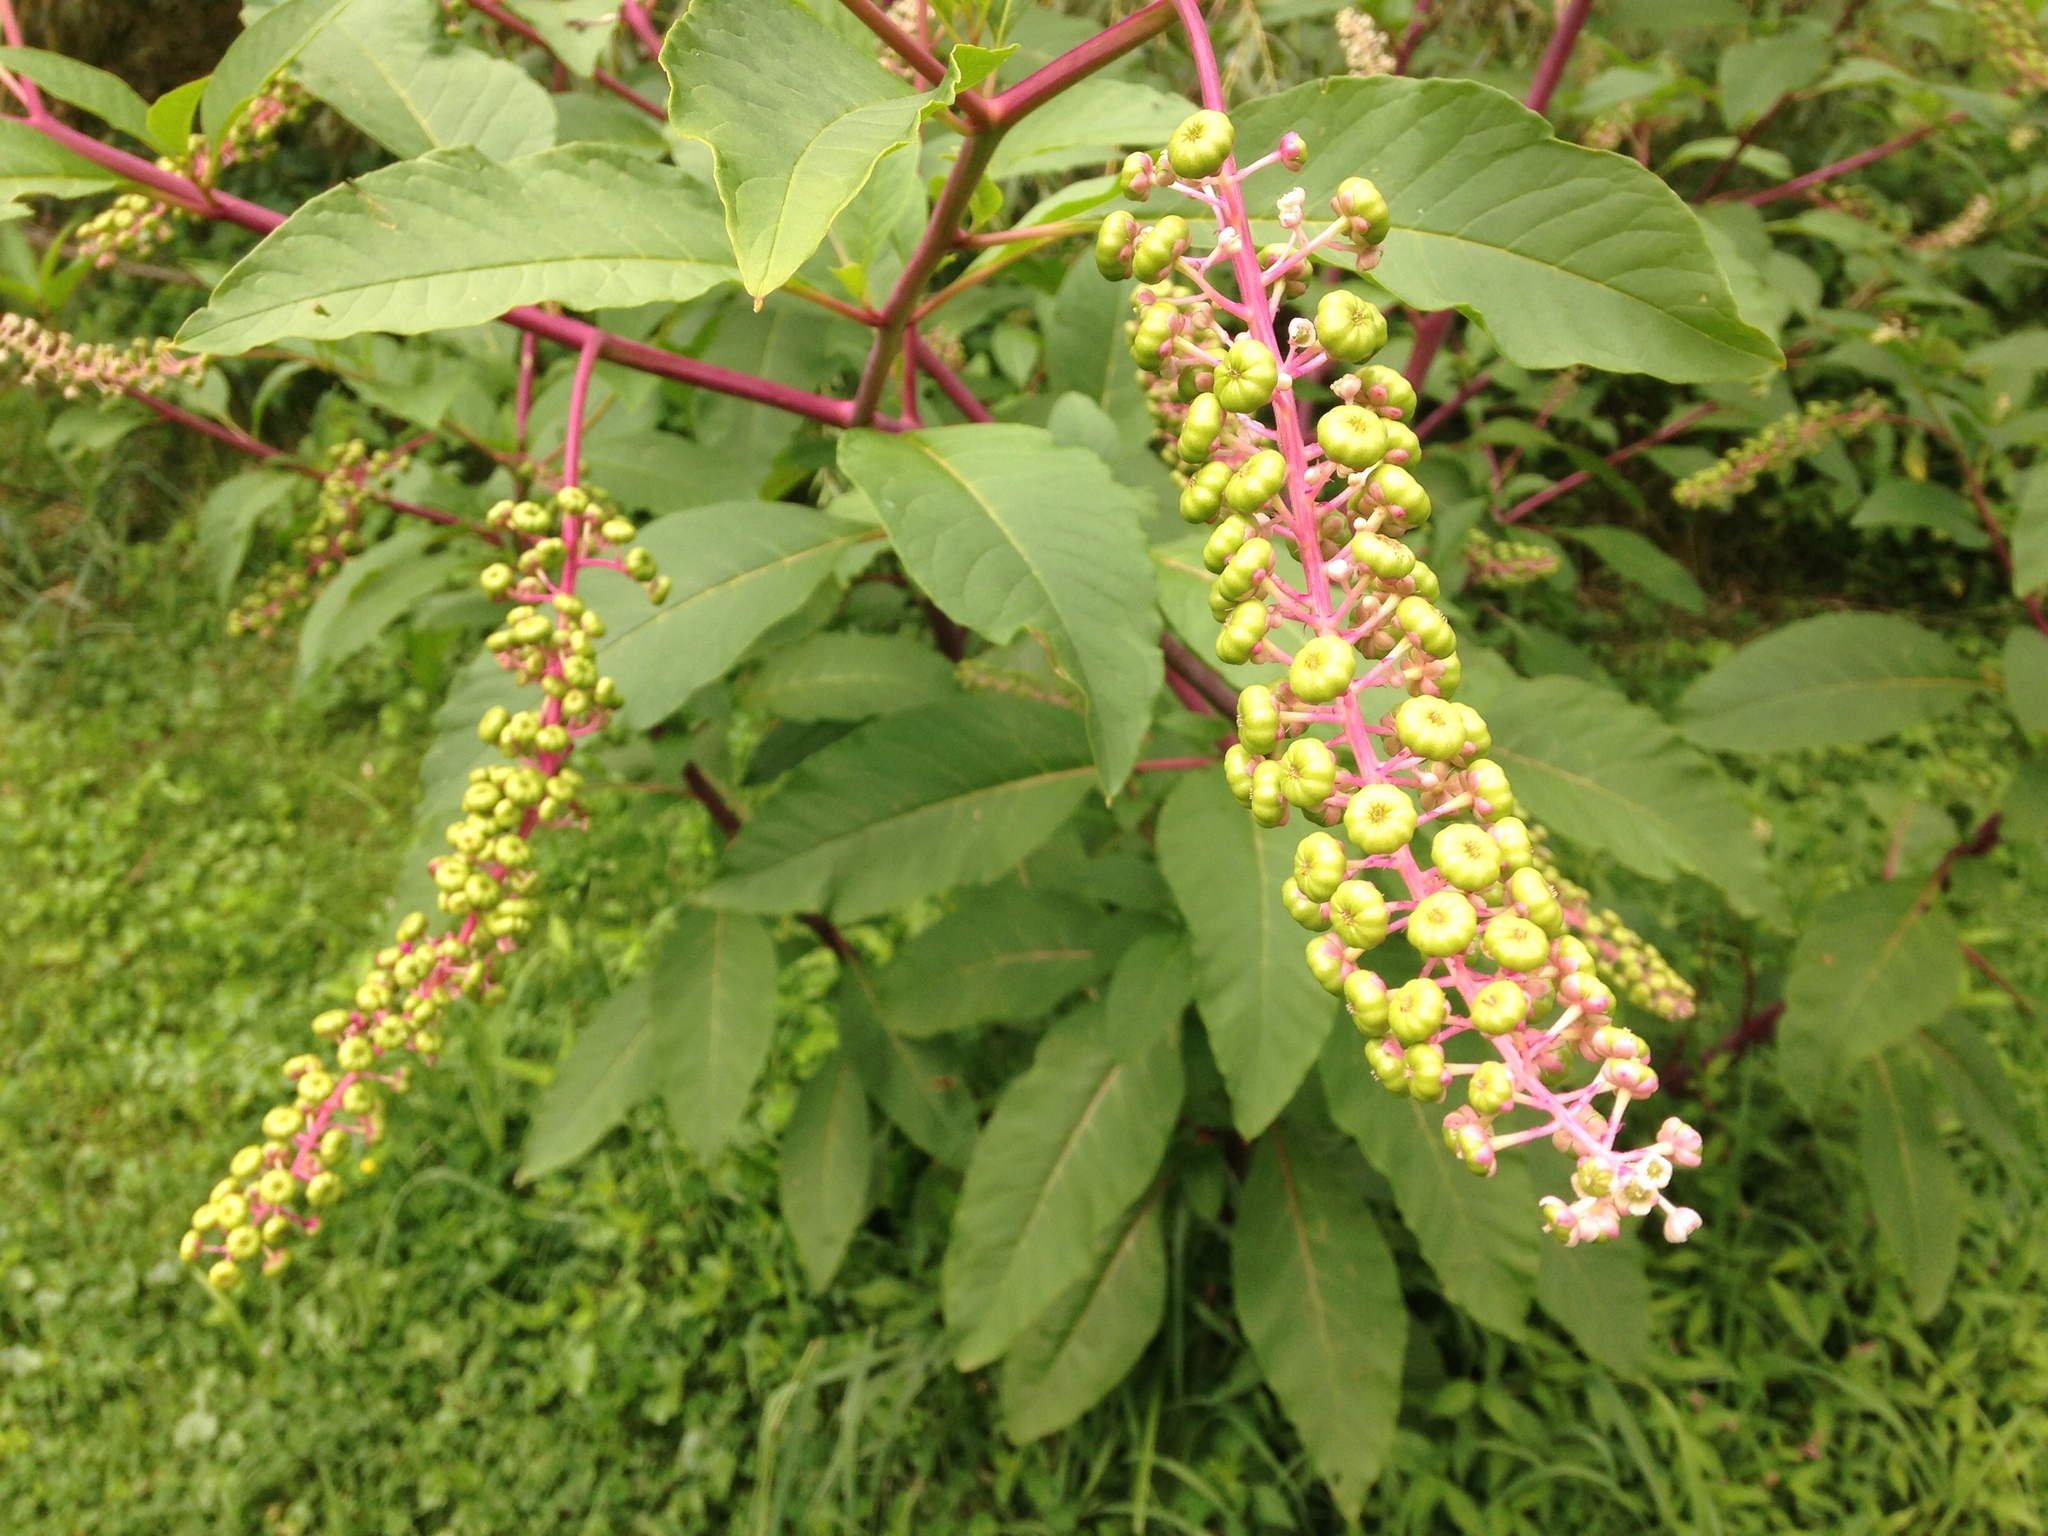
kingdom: Plantae
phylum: Tracheophyta
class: Magnoliopsida
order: Caryophyllales
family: Phytolaccaceae
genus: Phytolacca
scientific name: Phytolacca americana
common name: American pokeweed
